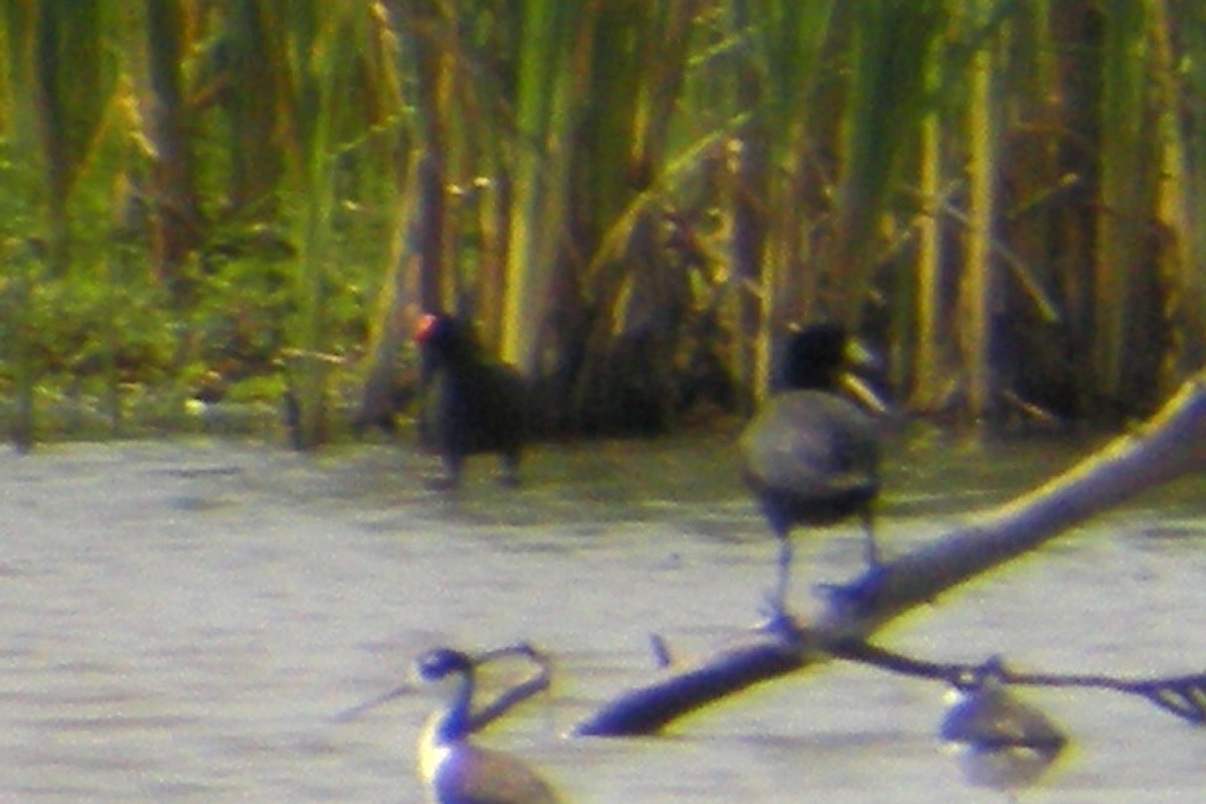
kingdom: Animalia
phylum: Chordata
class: Aves
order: Gruiformes
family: Rallidae
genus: Gallinula
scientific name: Gallinula chloropus
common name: Common moorhen
